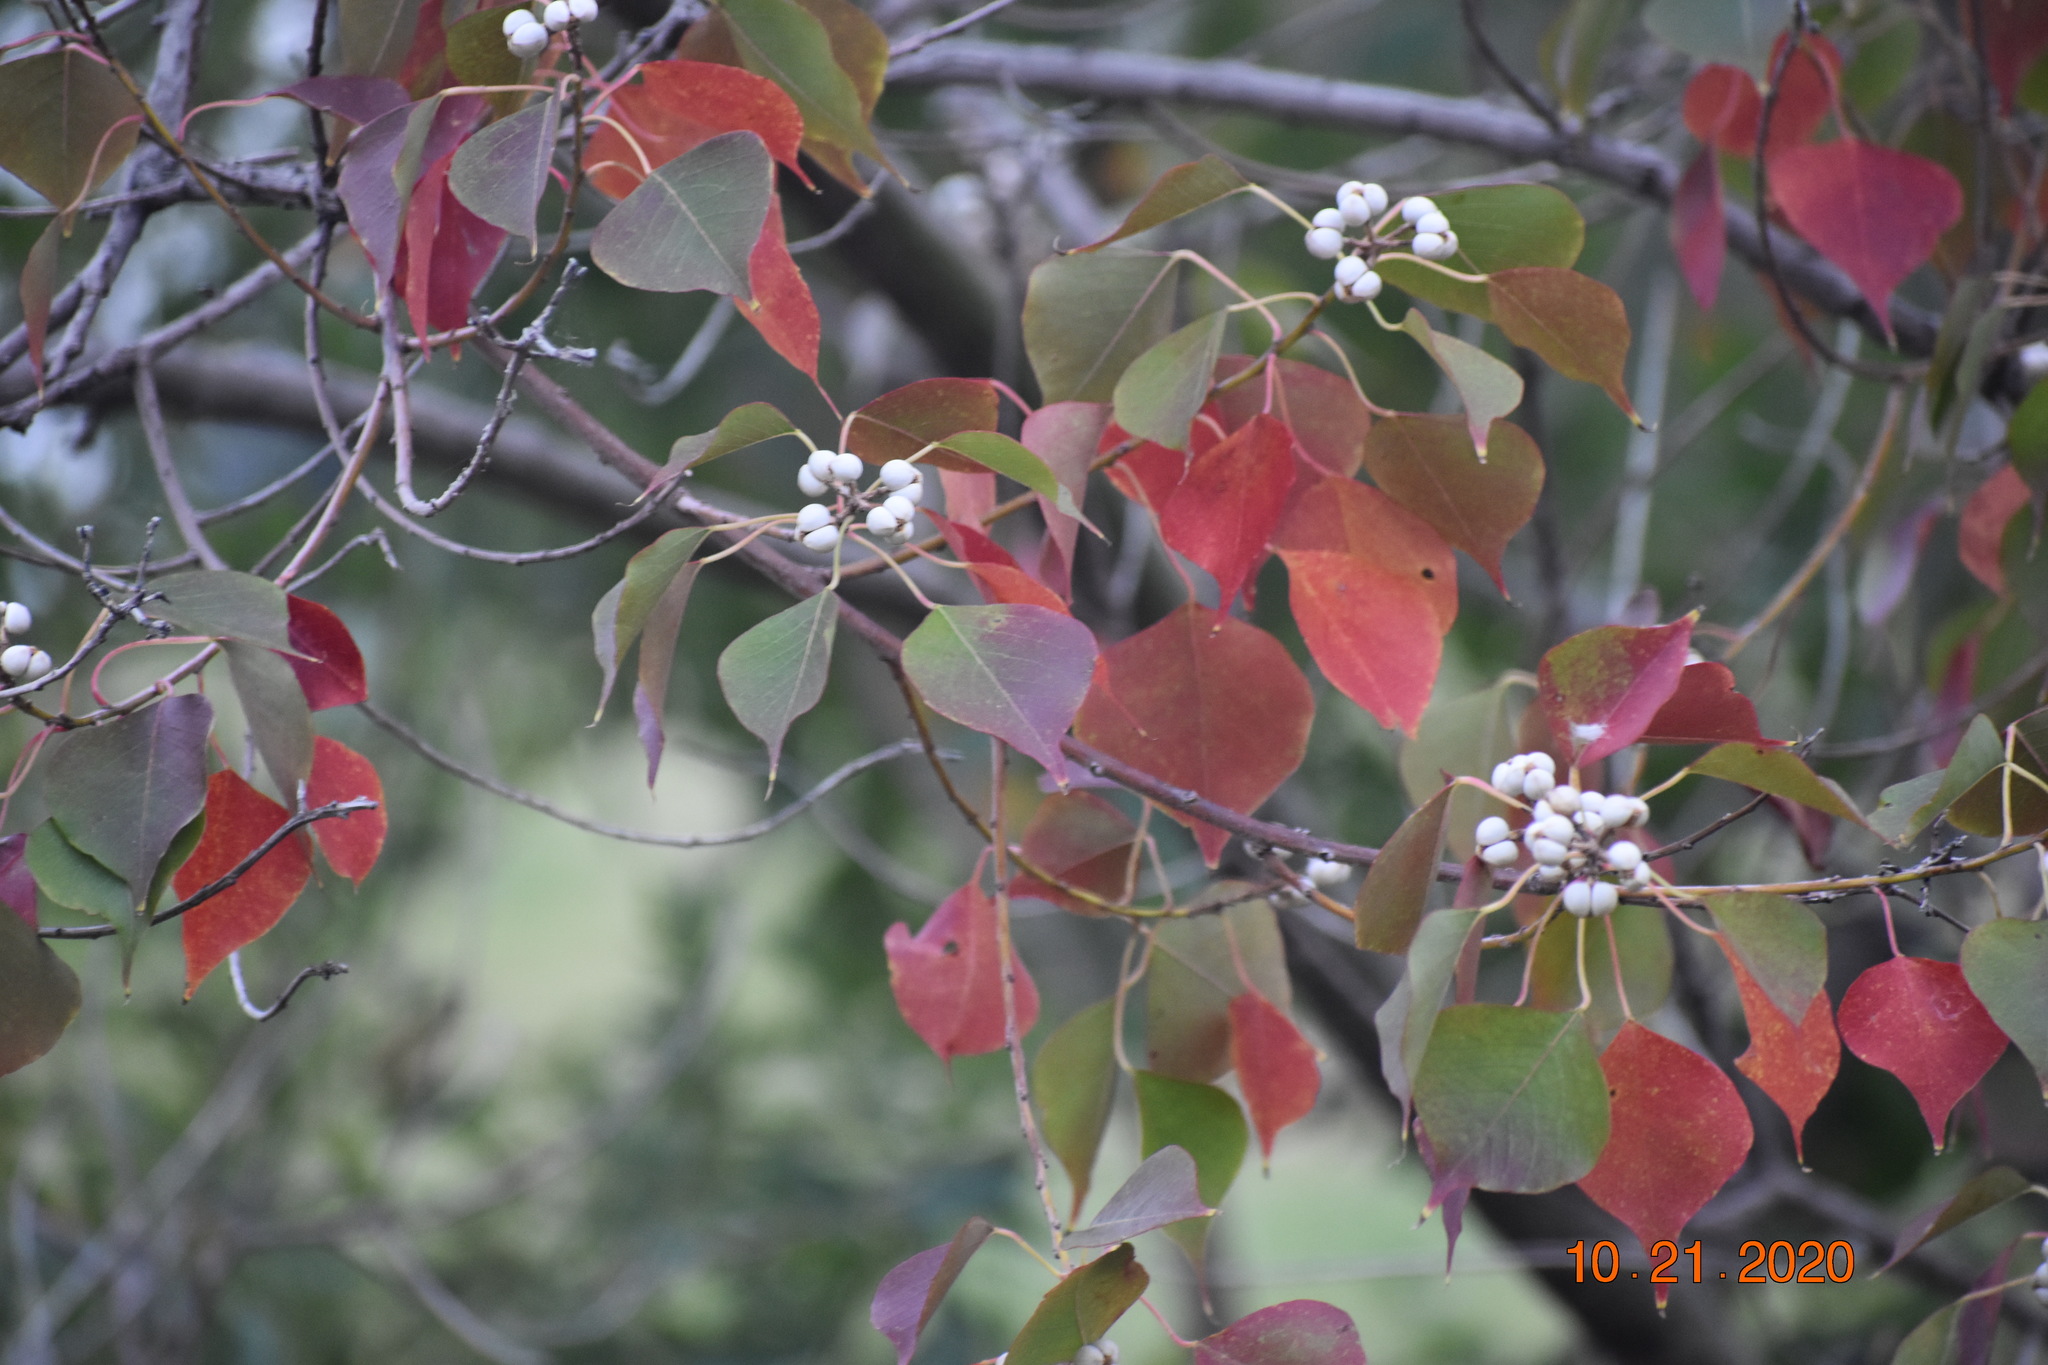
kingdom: Plantae
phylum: Tracheophyta
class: Magnoliopsida
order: Malpighiales
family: Euphorbiaceae
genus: Triadica
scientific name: Triadica sebifera
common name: Chinese tallow
